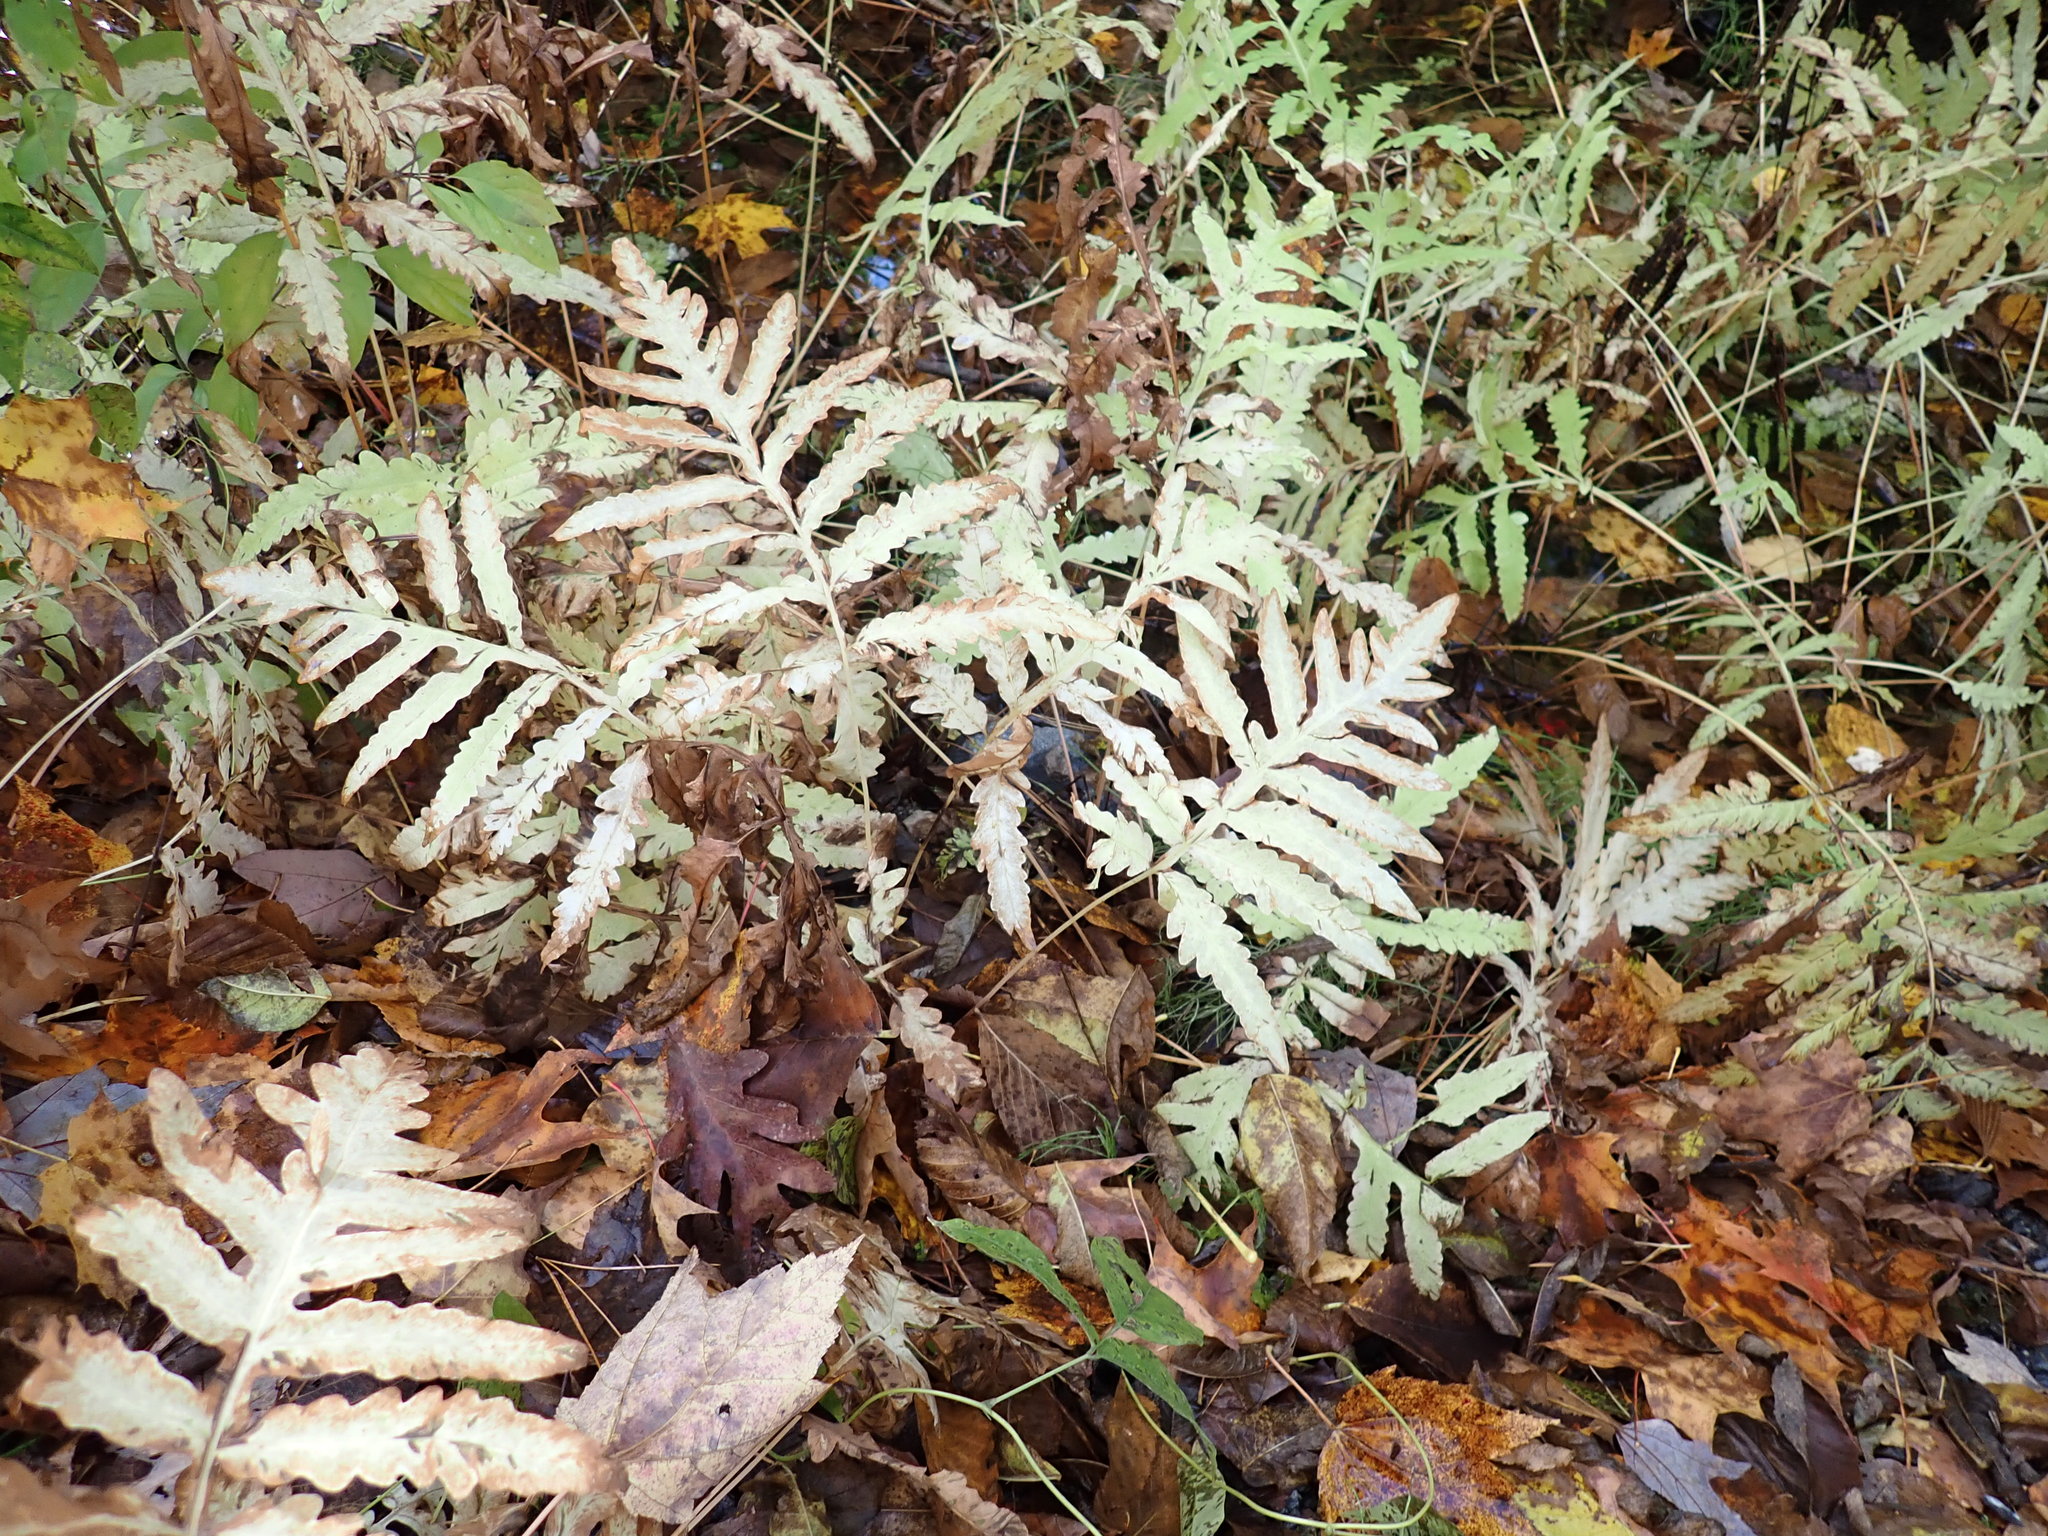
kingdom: Plantae
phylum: Tracheophyta
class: Polypodiopsida
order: Polypodiales
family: Onocleaceae
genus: Onoclea
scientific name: Onoclea sensibilis
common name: Sensitive fern
